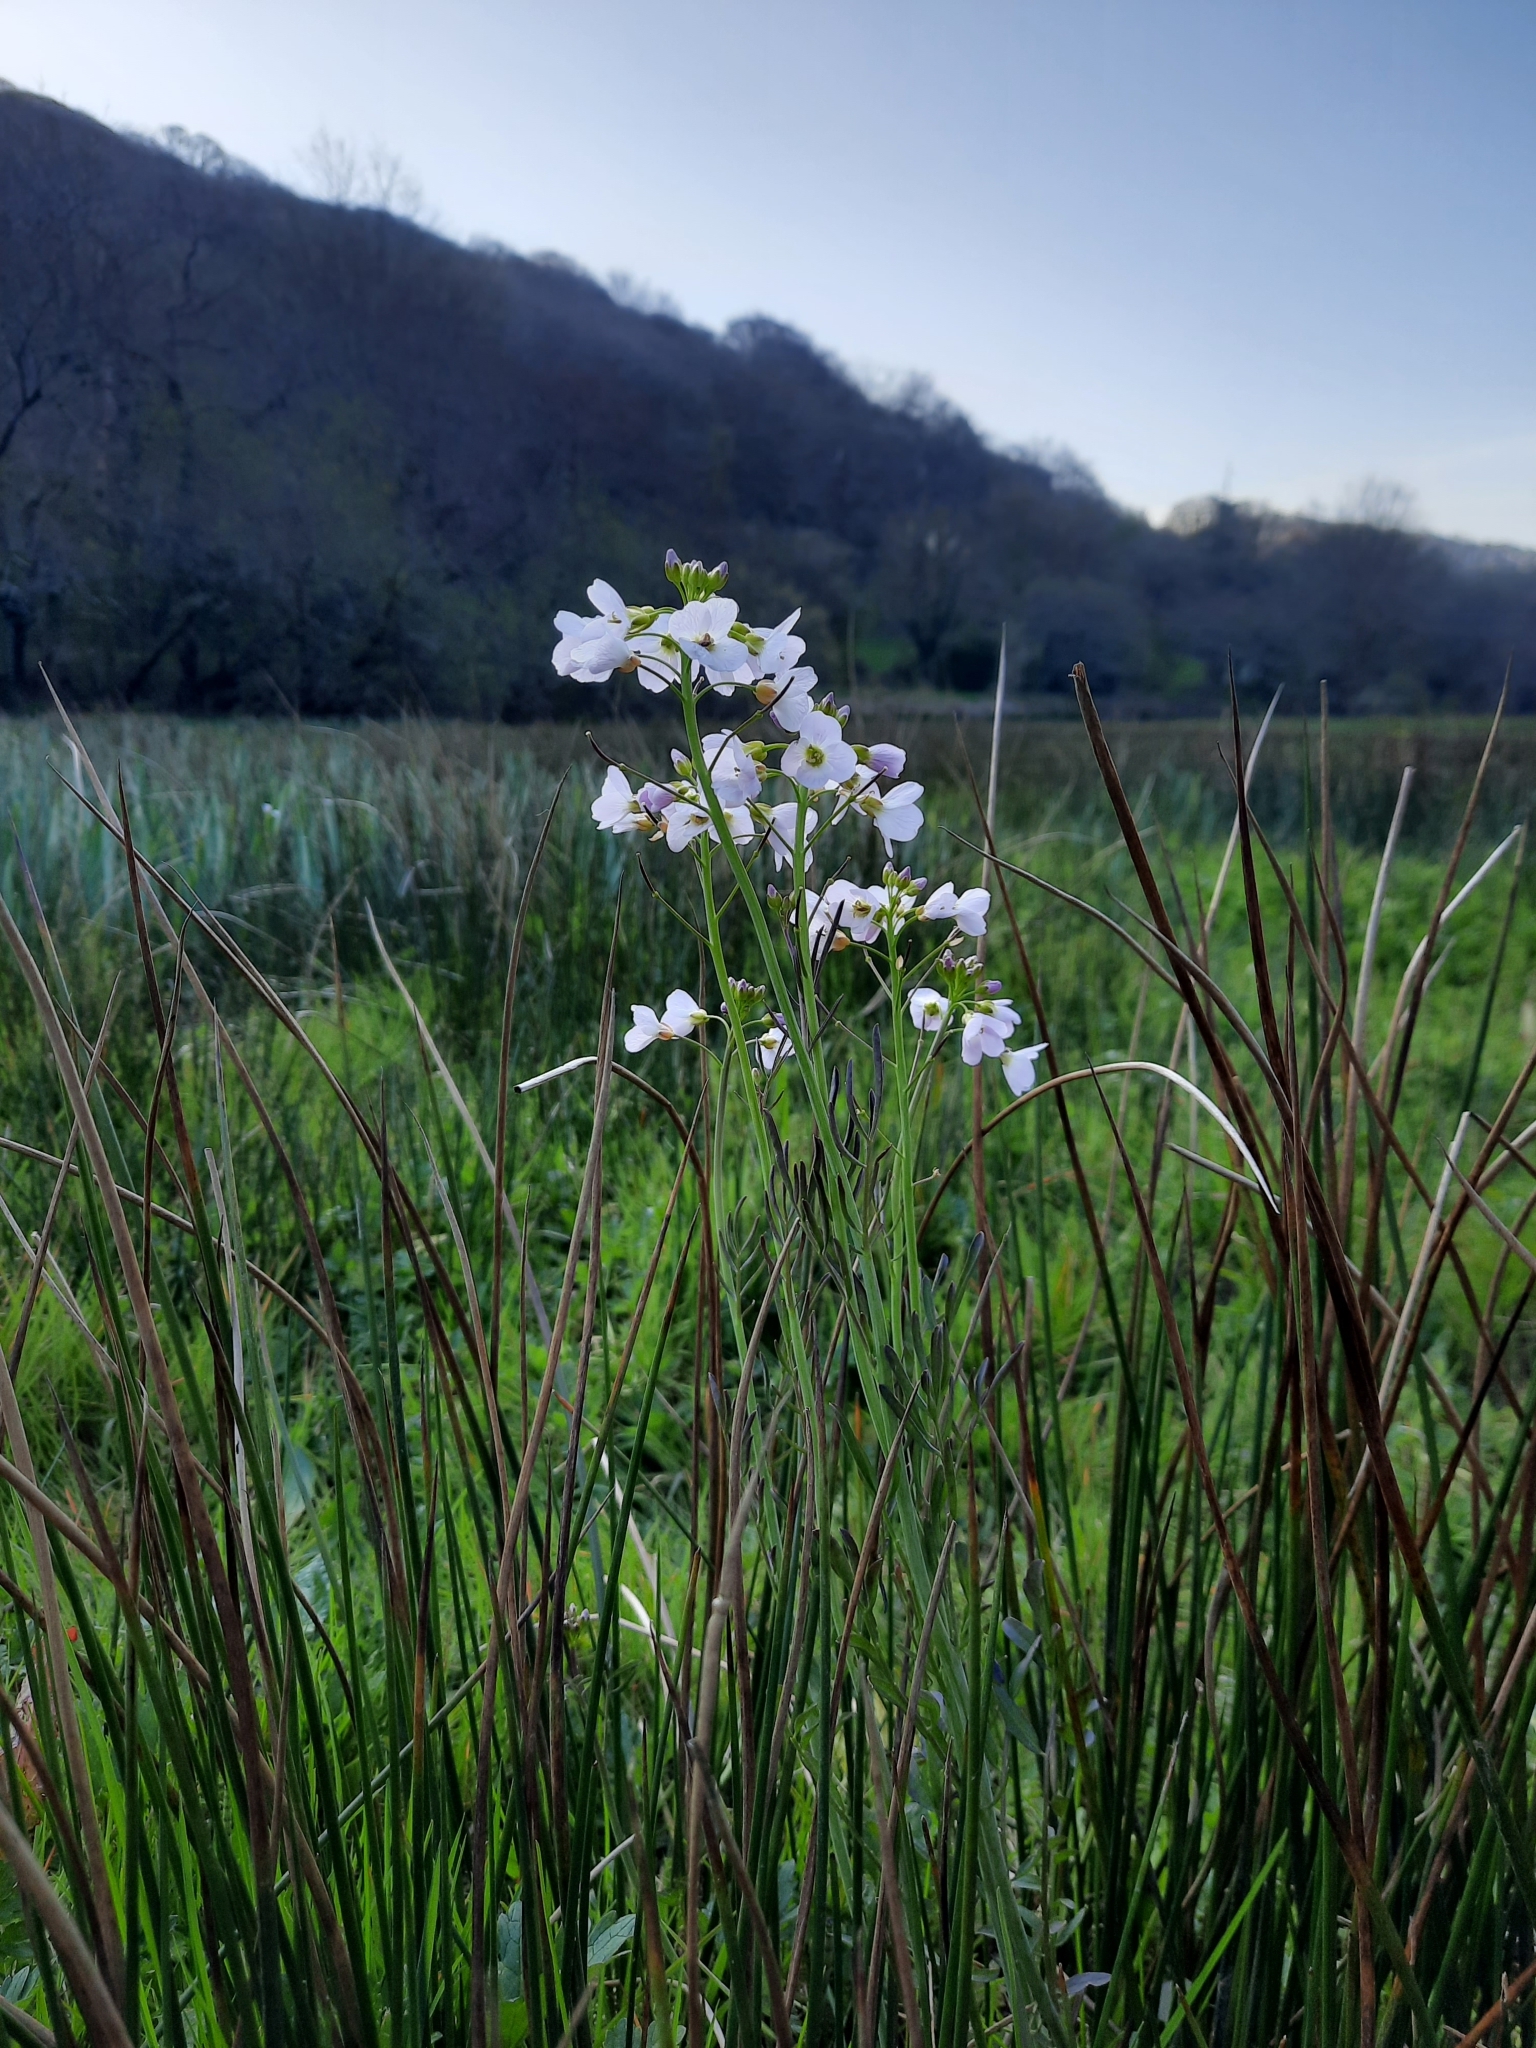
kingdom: Plantae
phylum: Tracheophyta
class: Magnoliopsida
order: Brassicales
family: Brassicaceae
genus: Cardamine
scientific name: Cardamine pratensis
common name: Cuckoo flower
